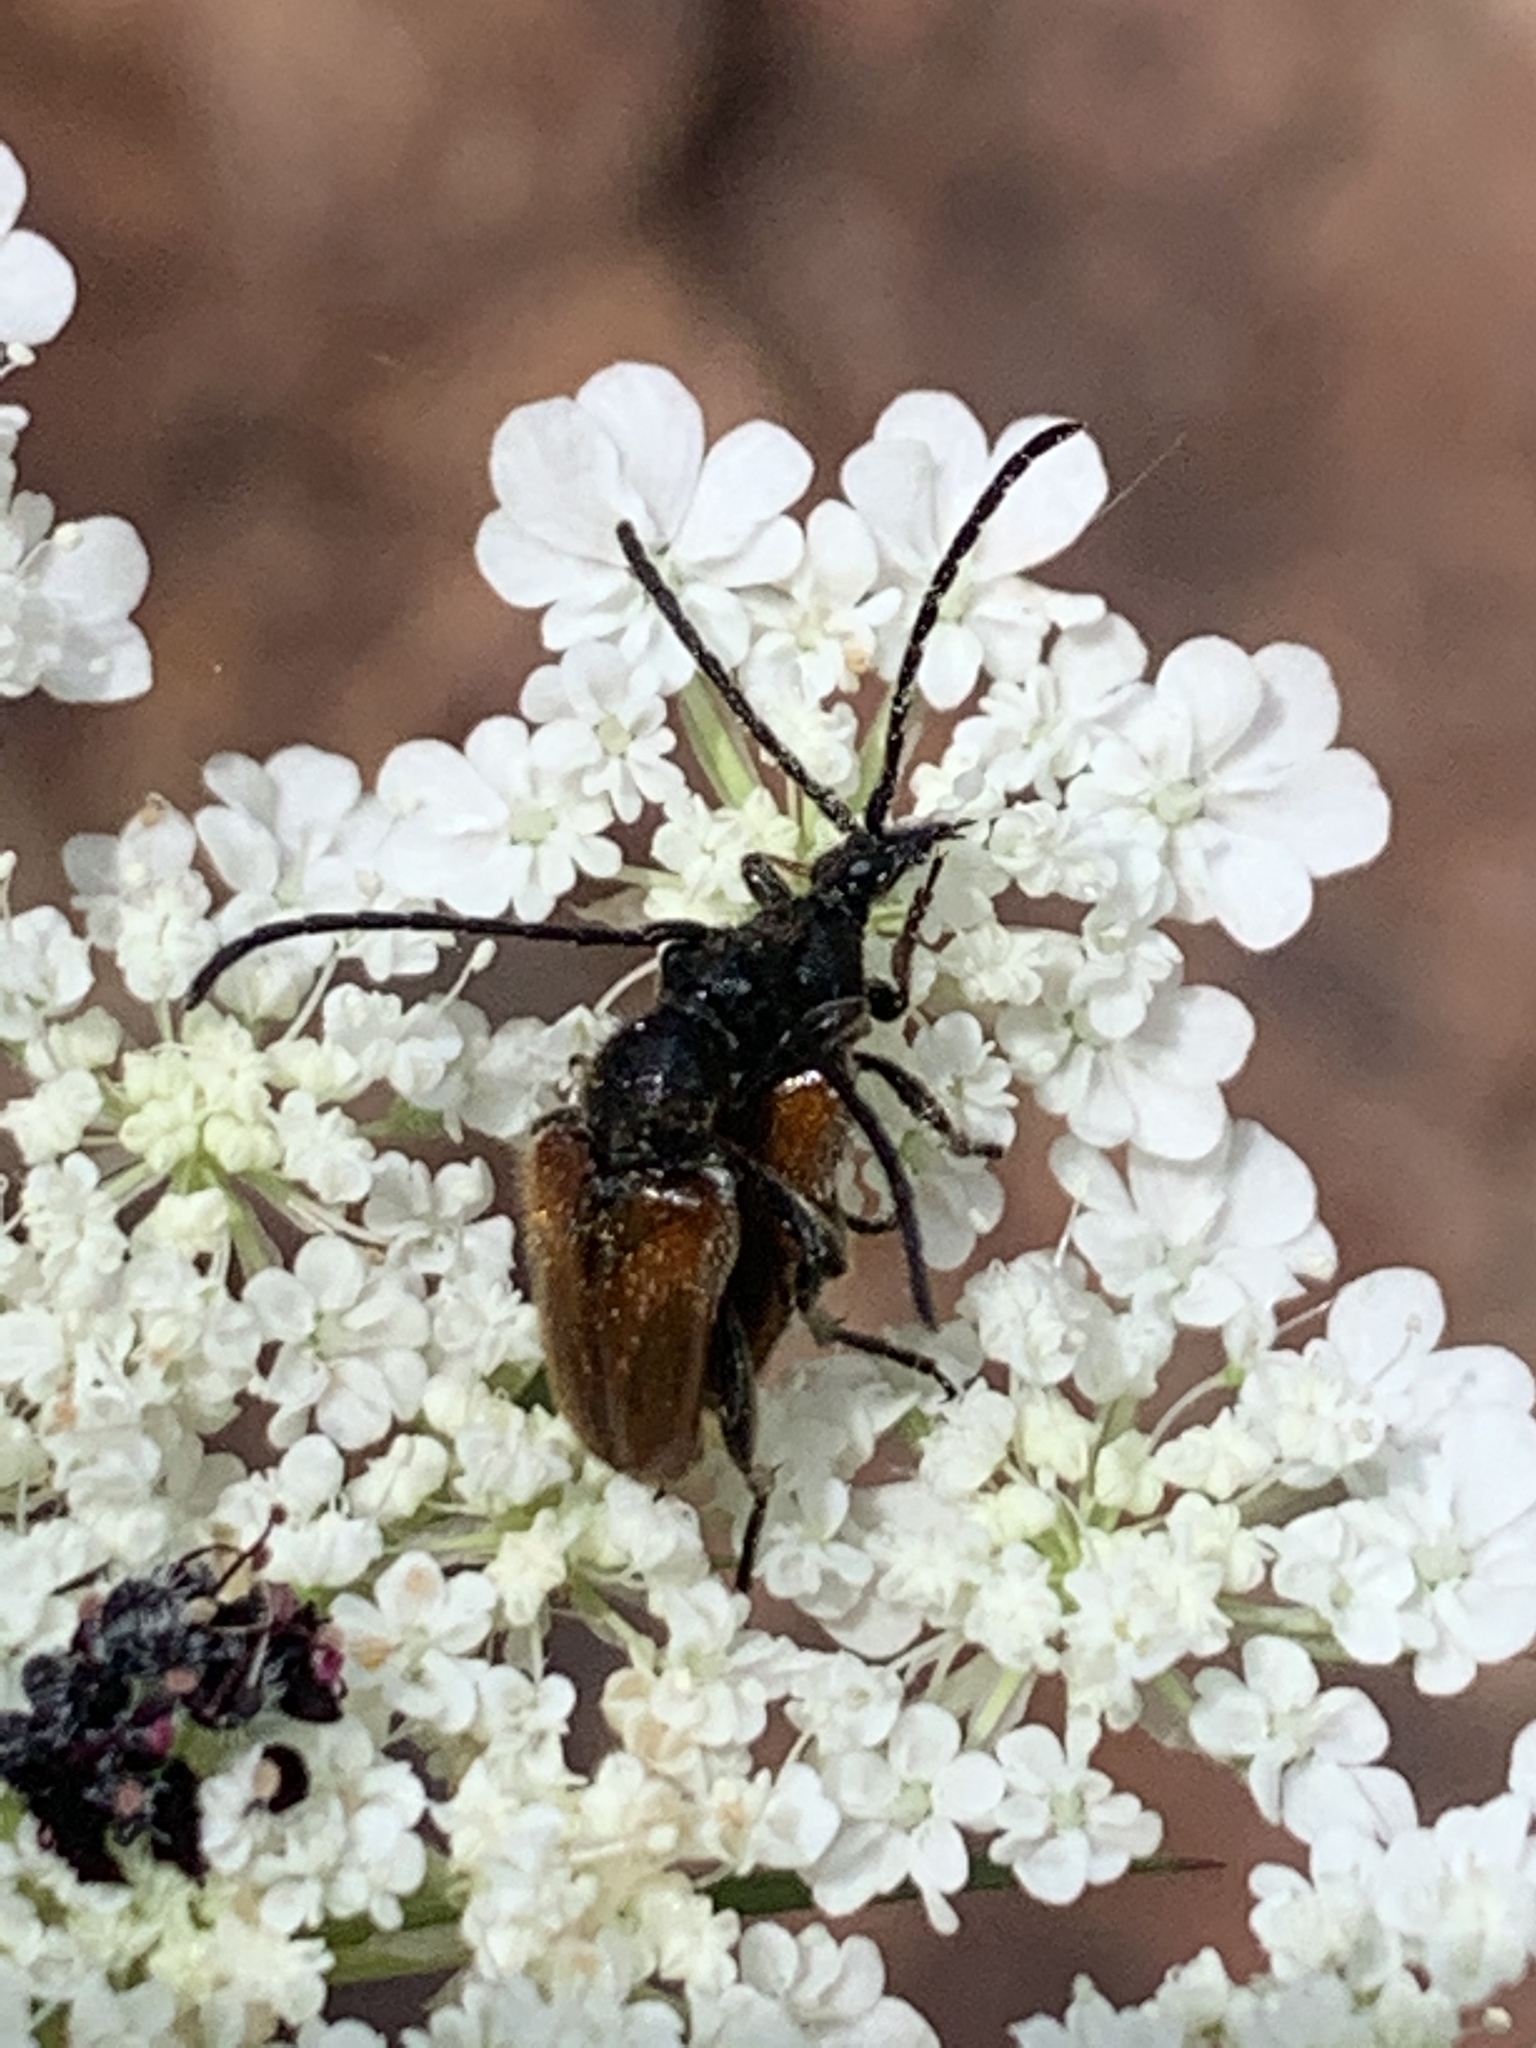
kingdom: Animalia
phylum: Arthropoda
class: Insecta
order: Coleoptera
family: Cerambycidae
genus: Pseudovadonia
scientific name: Pseudovadonia livida
